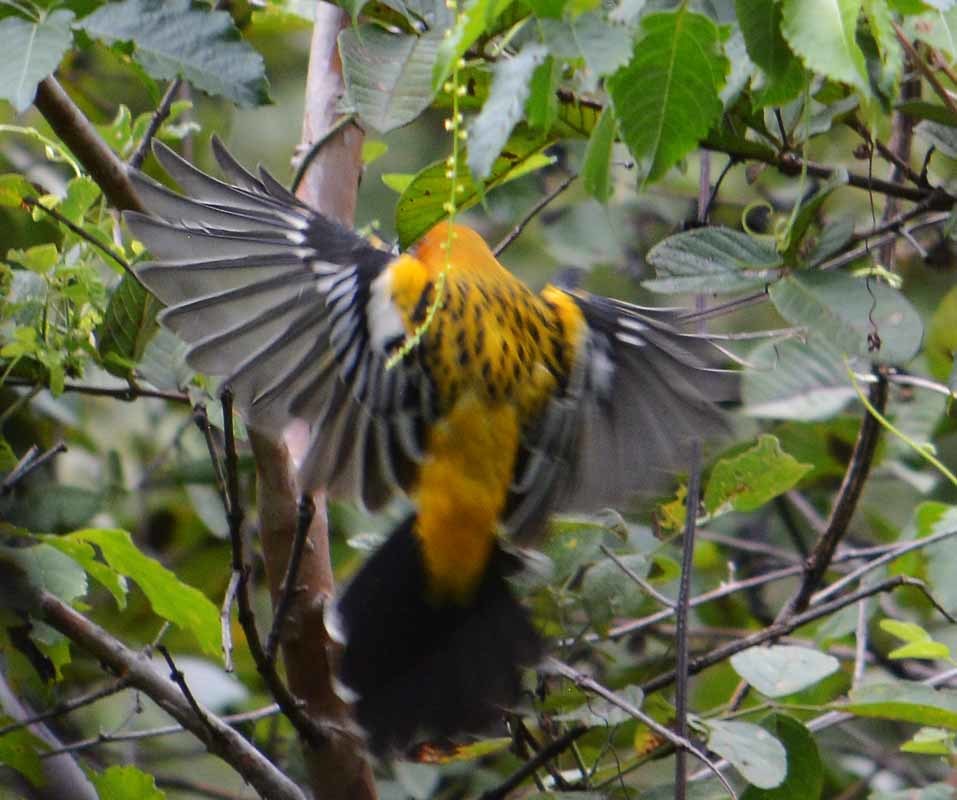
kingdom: Animalia
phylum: Chordata
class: Aves
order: Passeriformes
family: Icteridae
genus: Icterus
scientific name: Icterus pustulatus
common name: Streak-backed oriole
